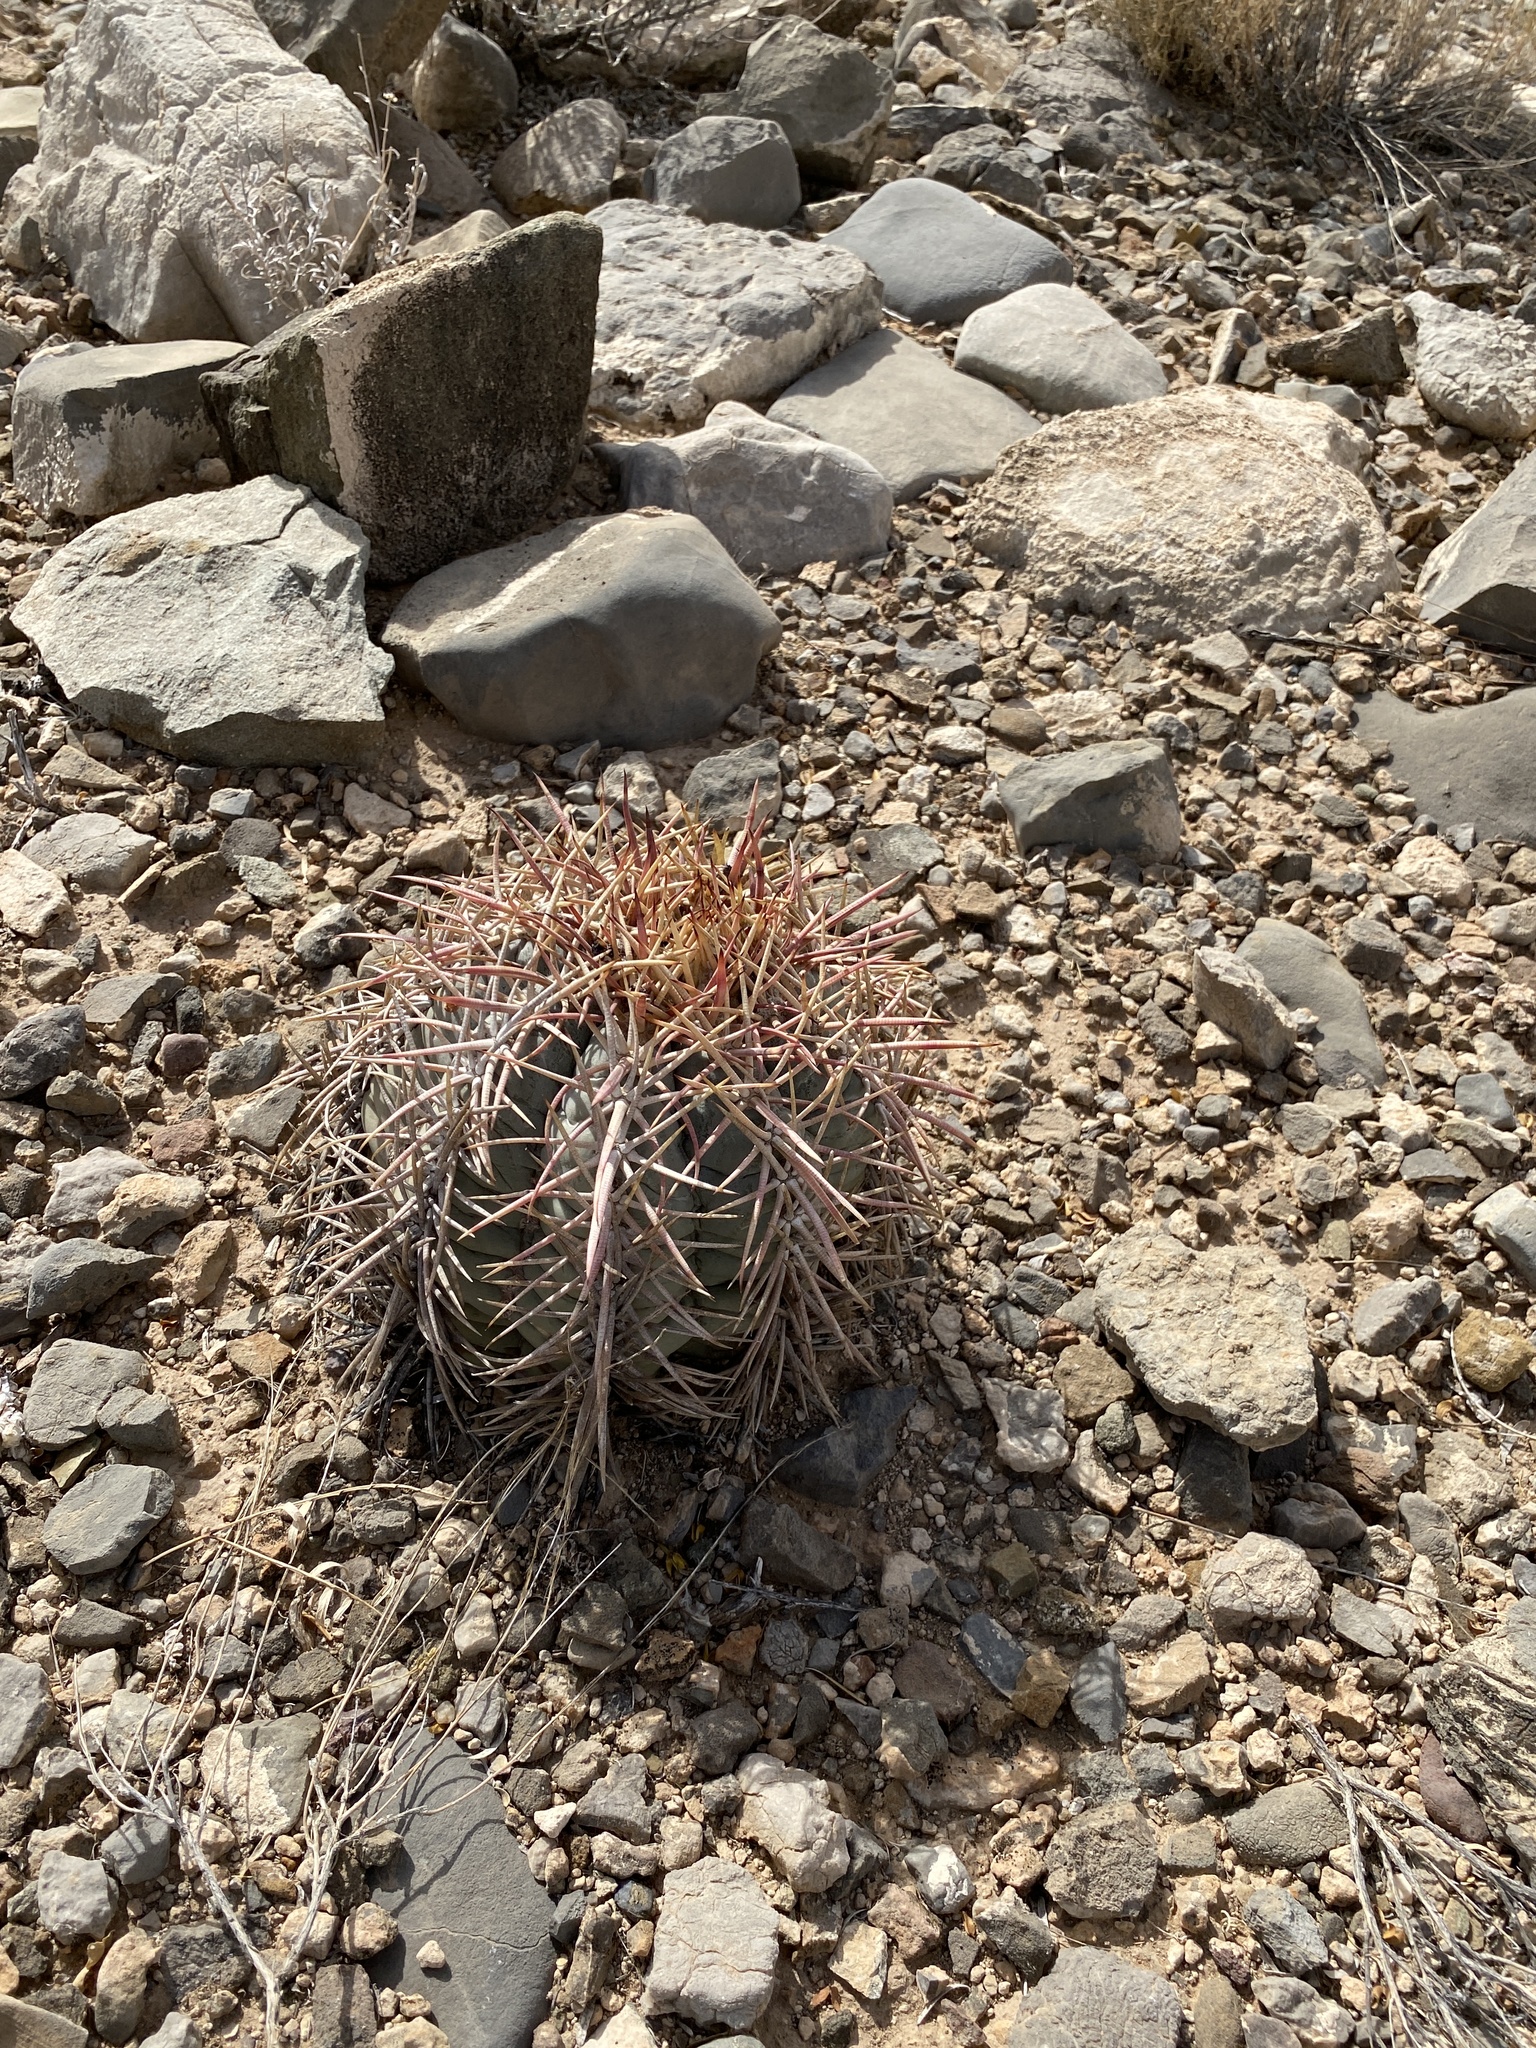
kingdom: Plantae
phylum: Tracheophyta
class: Magnoliopsida
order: Caryophyllales
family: Cactaceae
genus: Echinocactus
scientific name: Echinocactus horizonthalonius
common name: Devilshead
